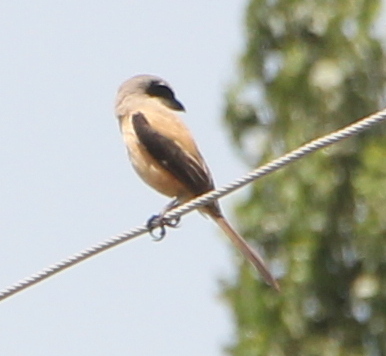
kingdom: Animalia
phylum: Chordata
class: Aves
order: Passeriformes
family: Laniidae
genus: Lanius
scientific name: Lanius schach
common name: Long-tailed shrike
